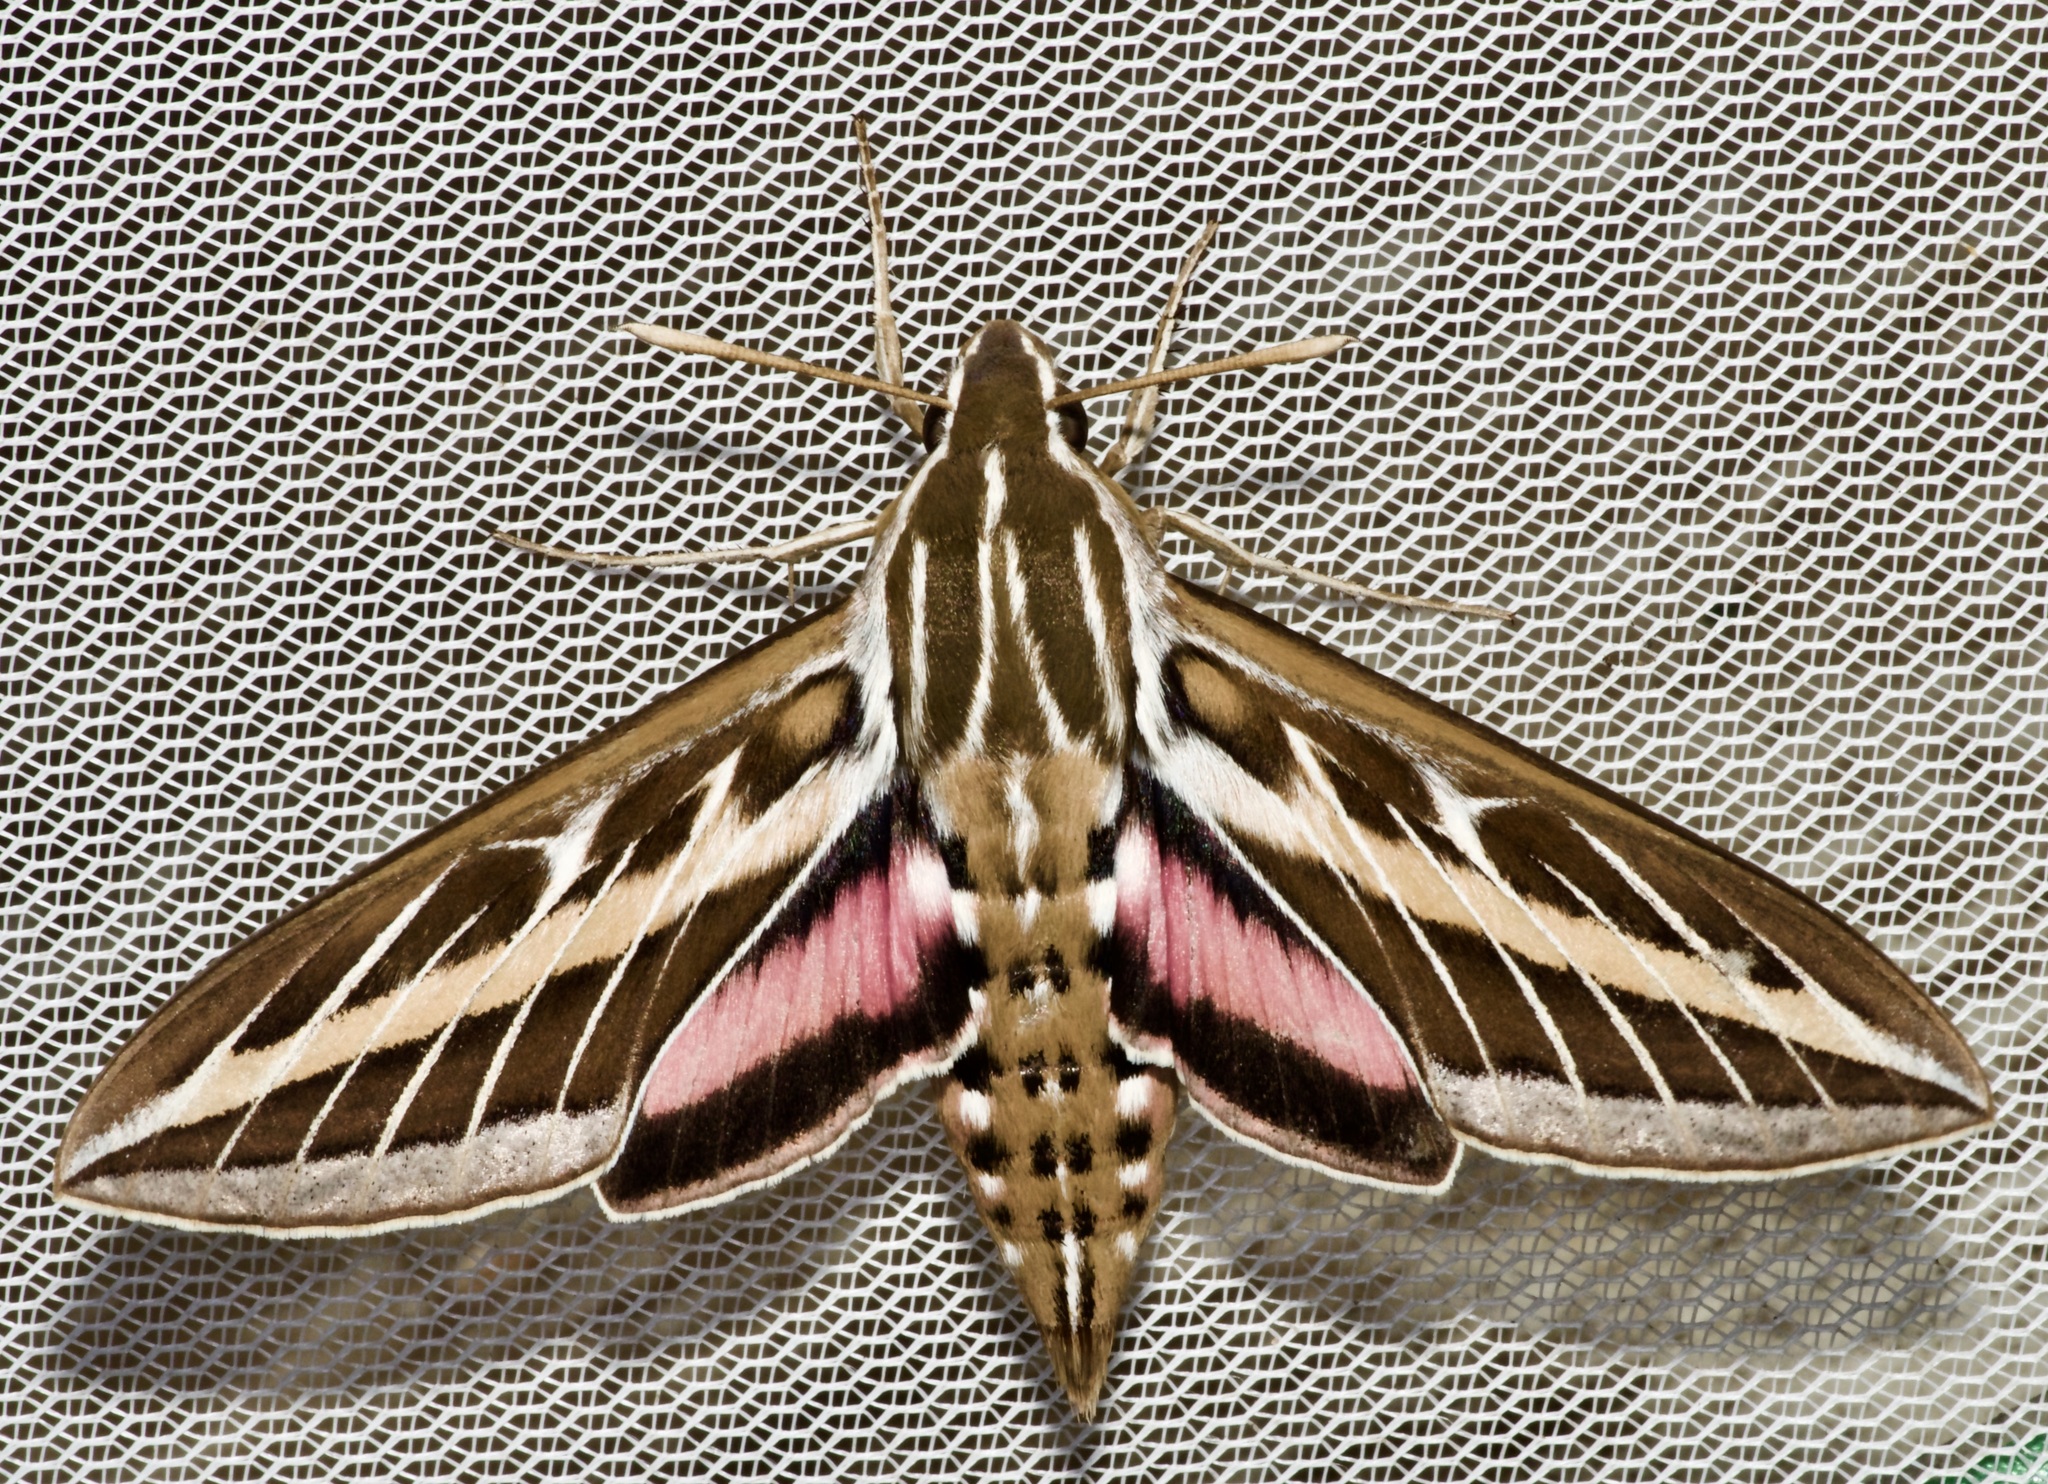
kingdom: Animalia
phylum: Arthropoda
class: Insecta
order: Lepidoptera
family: Sphingidae
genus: Hyles
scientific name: Hyles lineata
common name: White-lined sphinx
